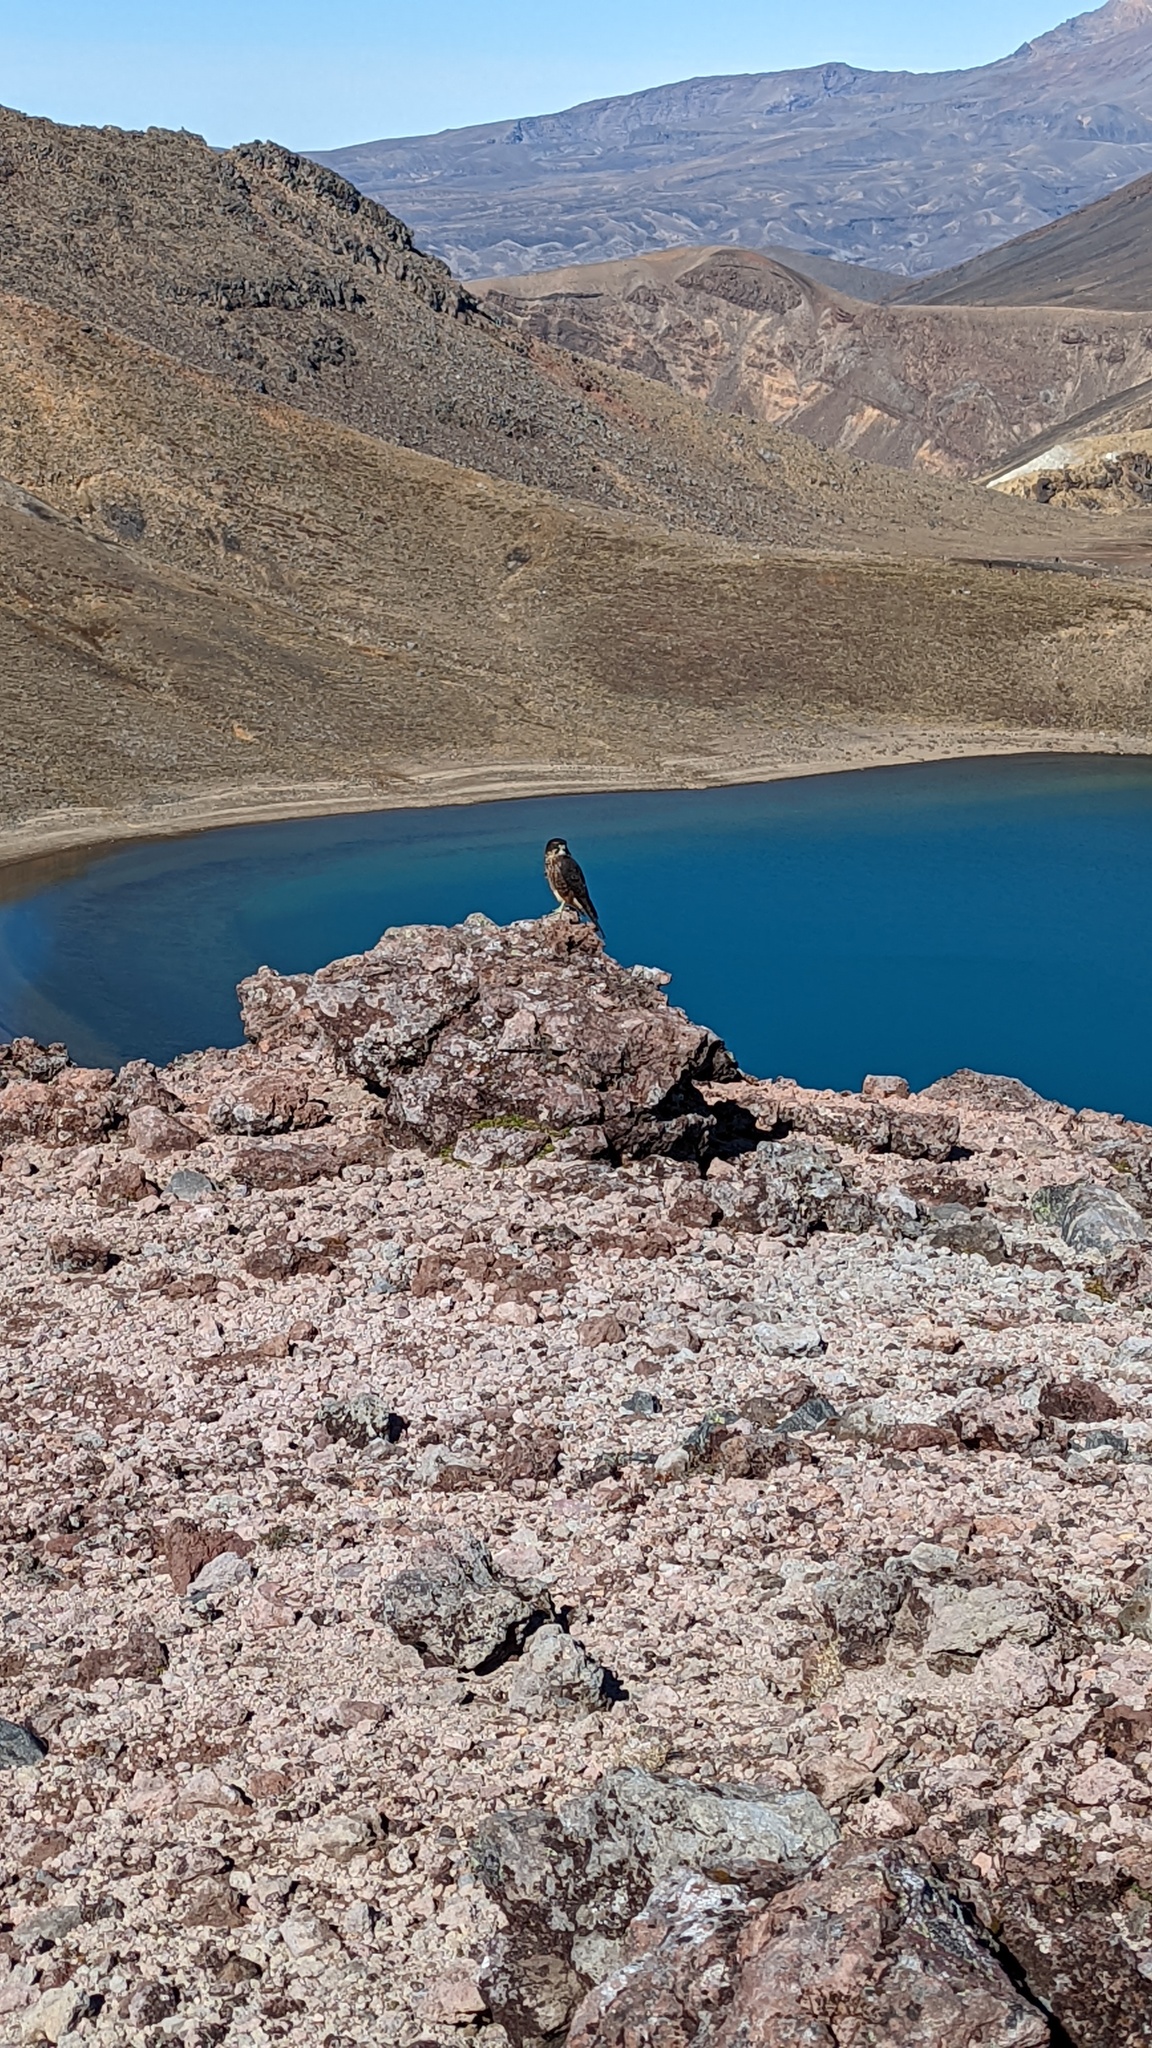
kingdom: Animalia
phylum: Chordata
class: Aves
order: Falconiformes
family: Falconidae
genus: Falco
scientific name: Falco novaeseelandiae
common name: New zealand falcon
